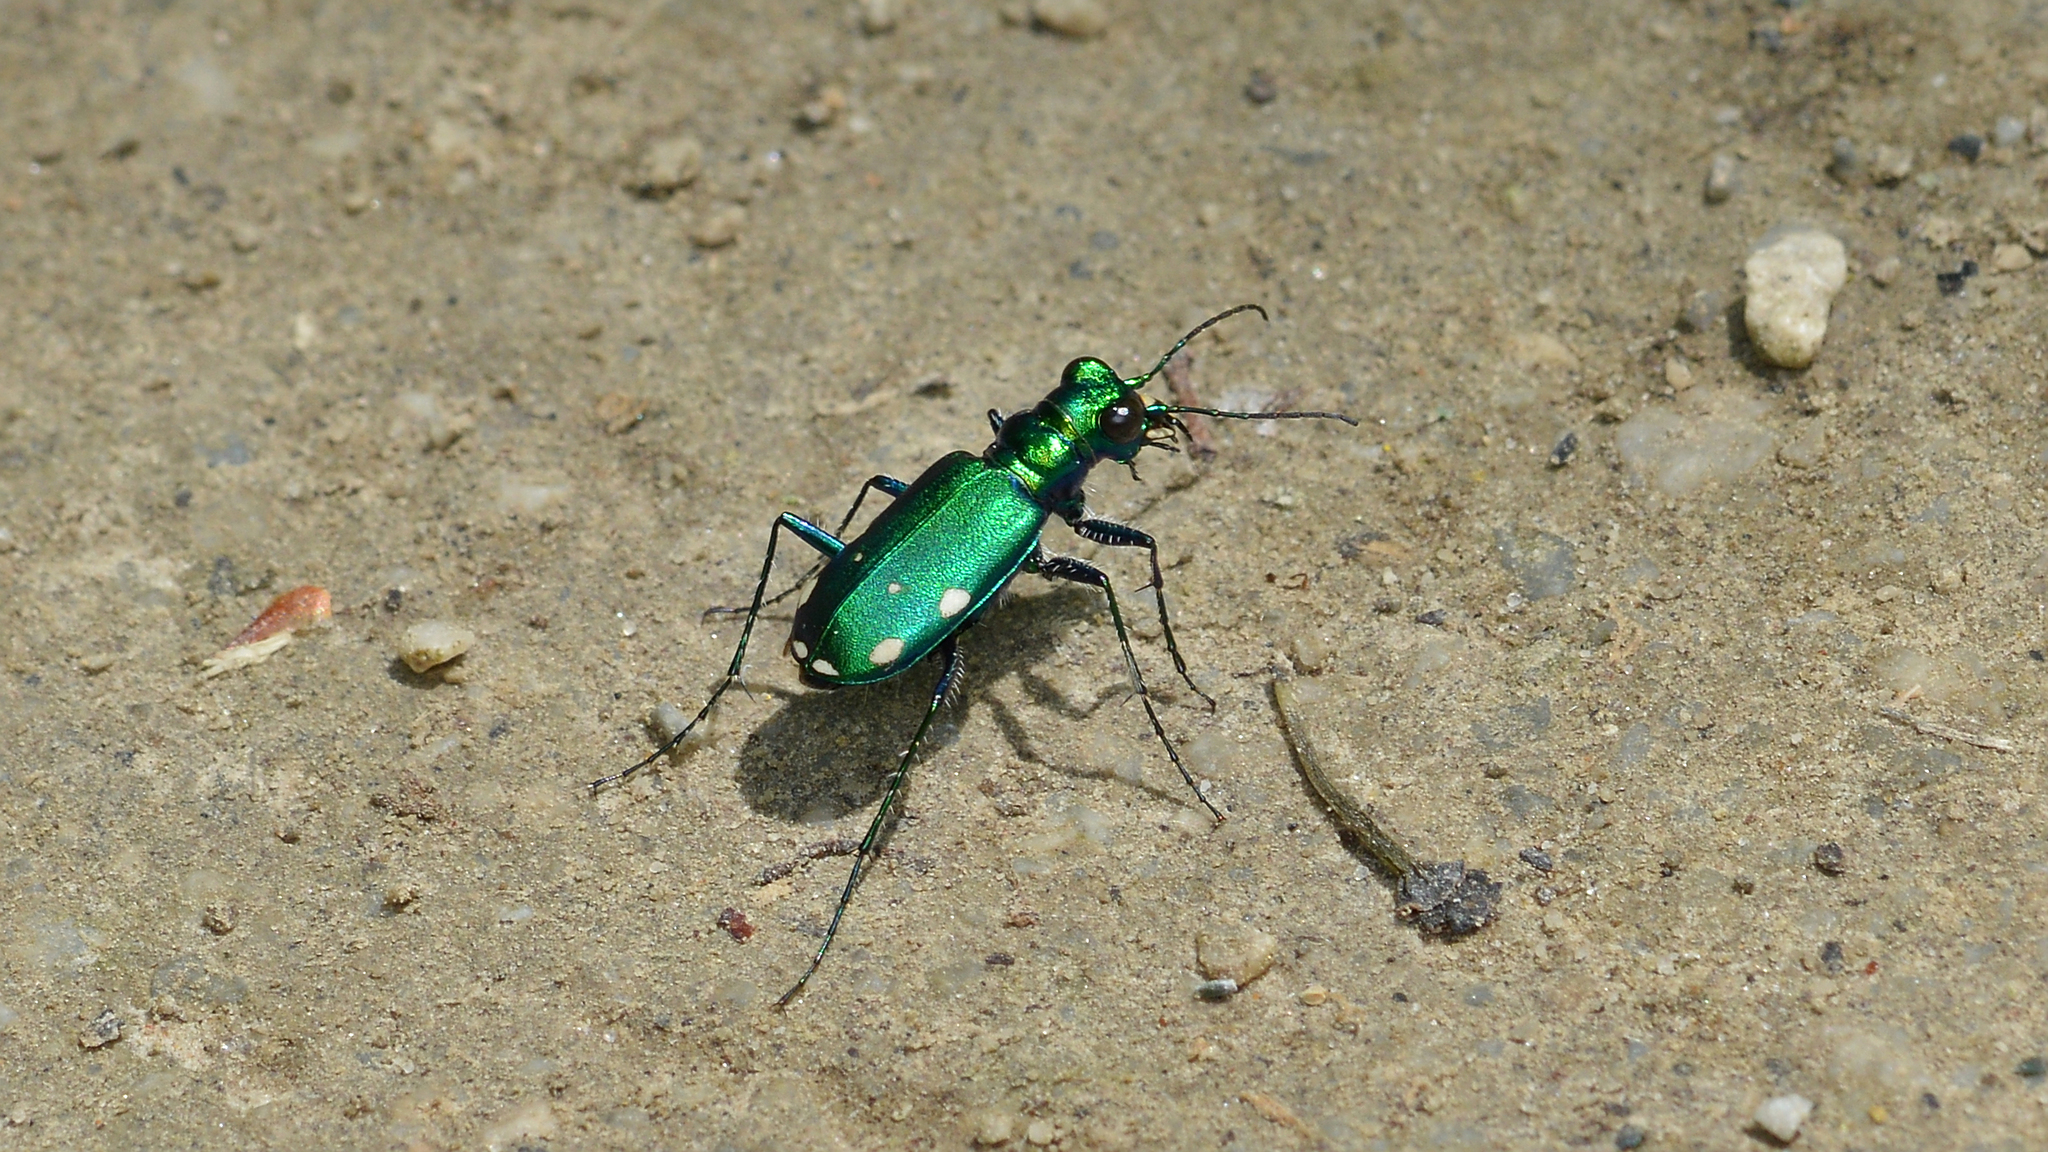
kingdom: Animalia
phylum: Arthropoda
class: Insecta
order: Coleoptera
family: Carabidae
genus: Cicindela
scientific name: Cicindela sexguttata
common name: Six-spotted tiger beetle
